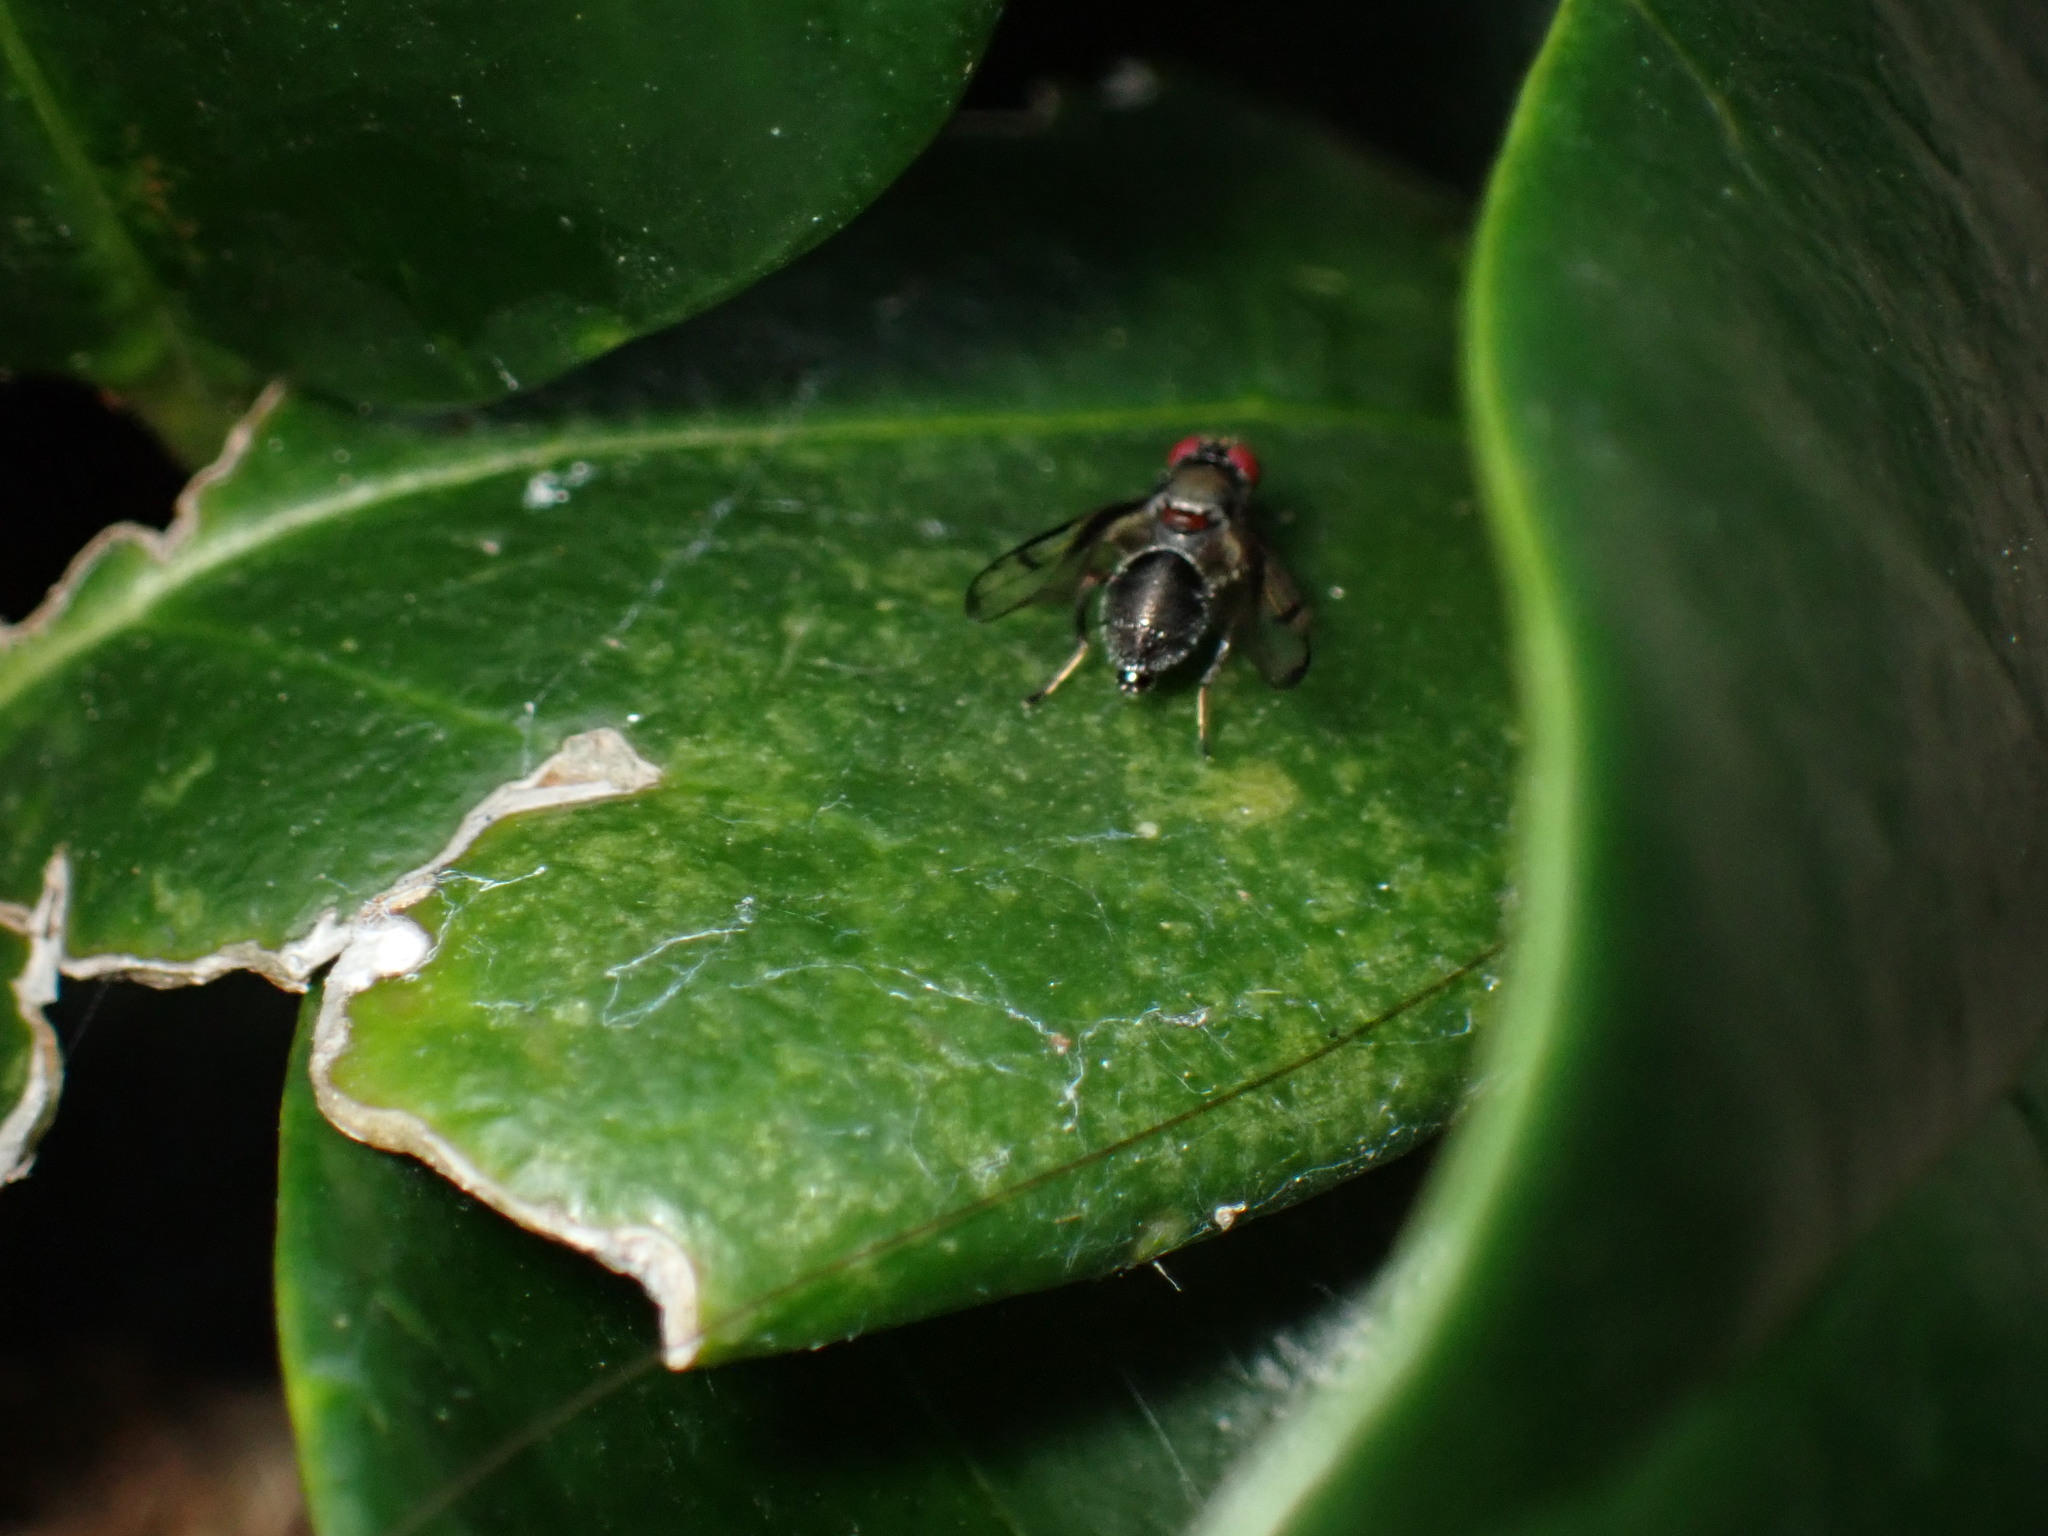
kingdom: Animalia
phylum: Arthropoda
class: Insecta
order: Diptera
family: Platystomatidae
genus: Pogonortalis
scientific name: Pogonortalis doclea
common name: Boatman fly
